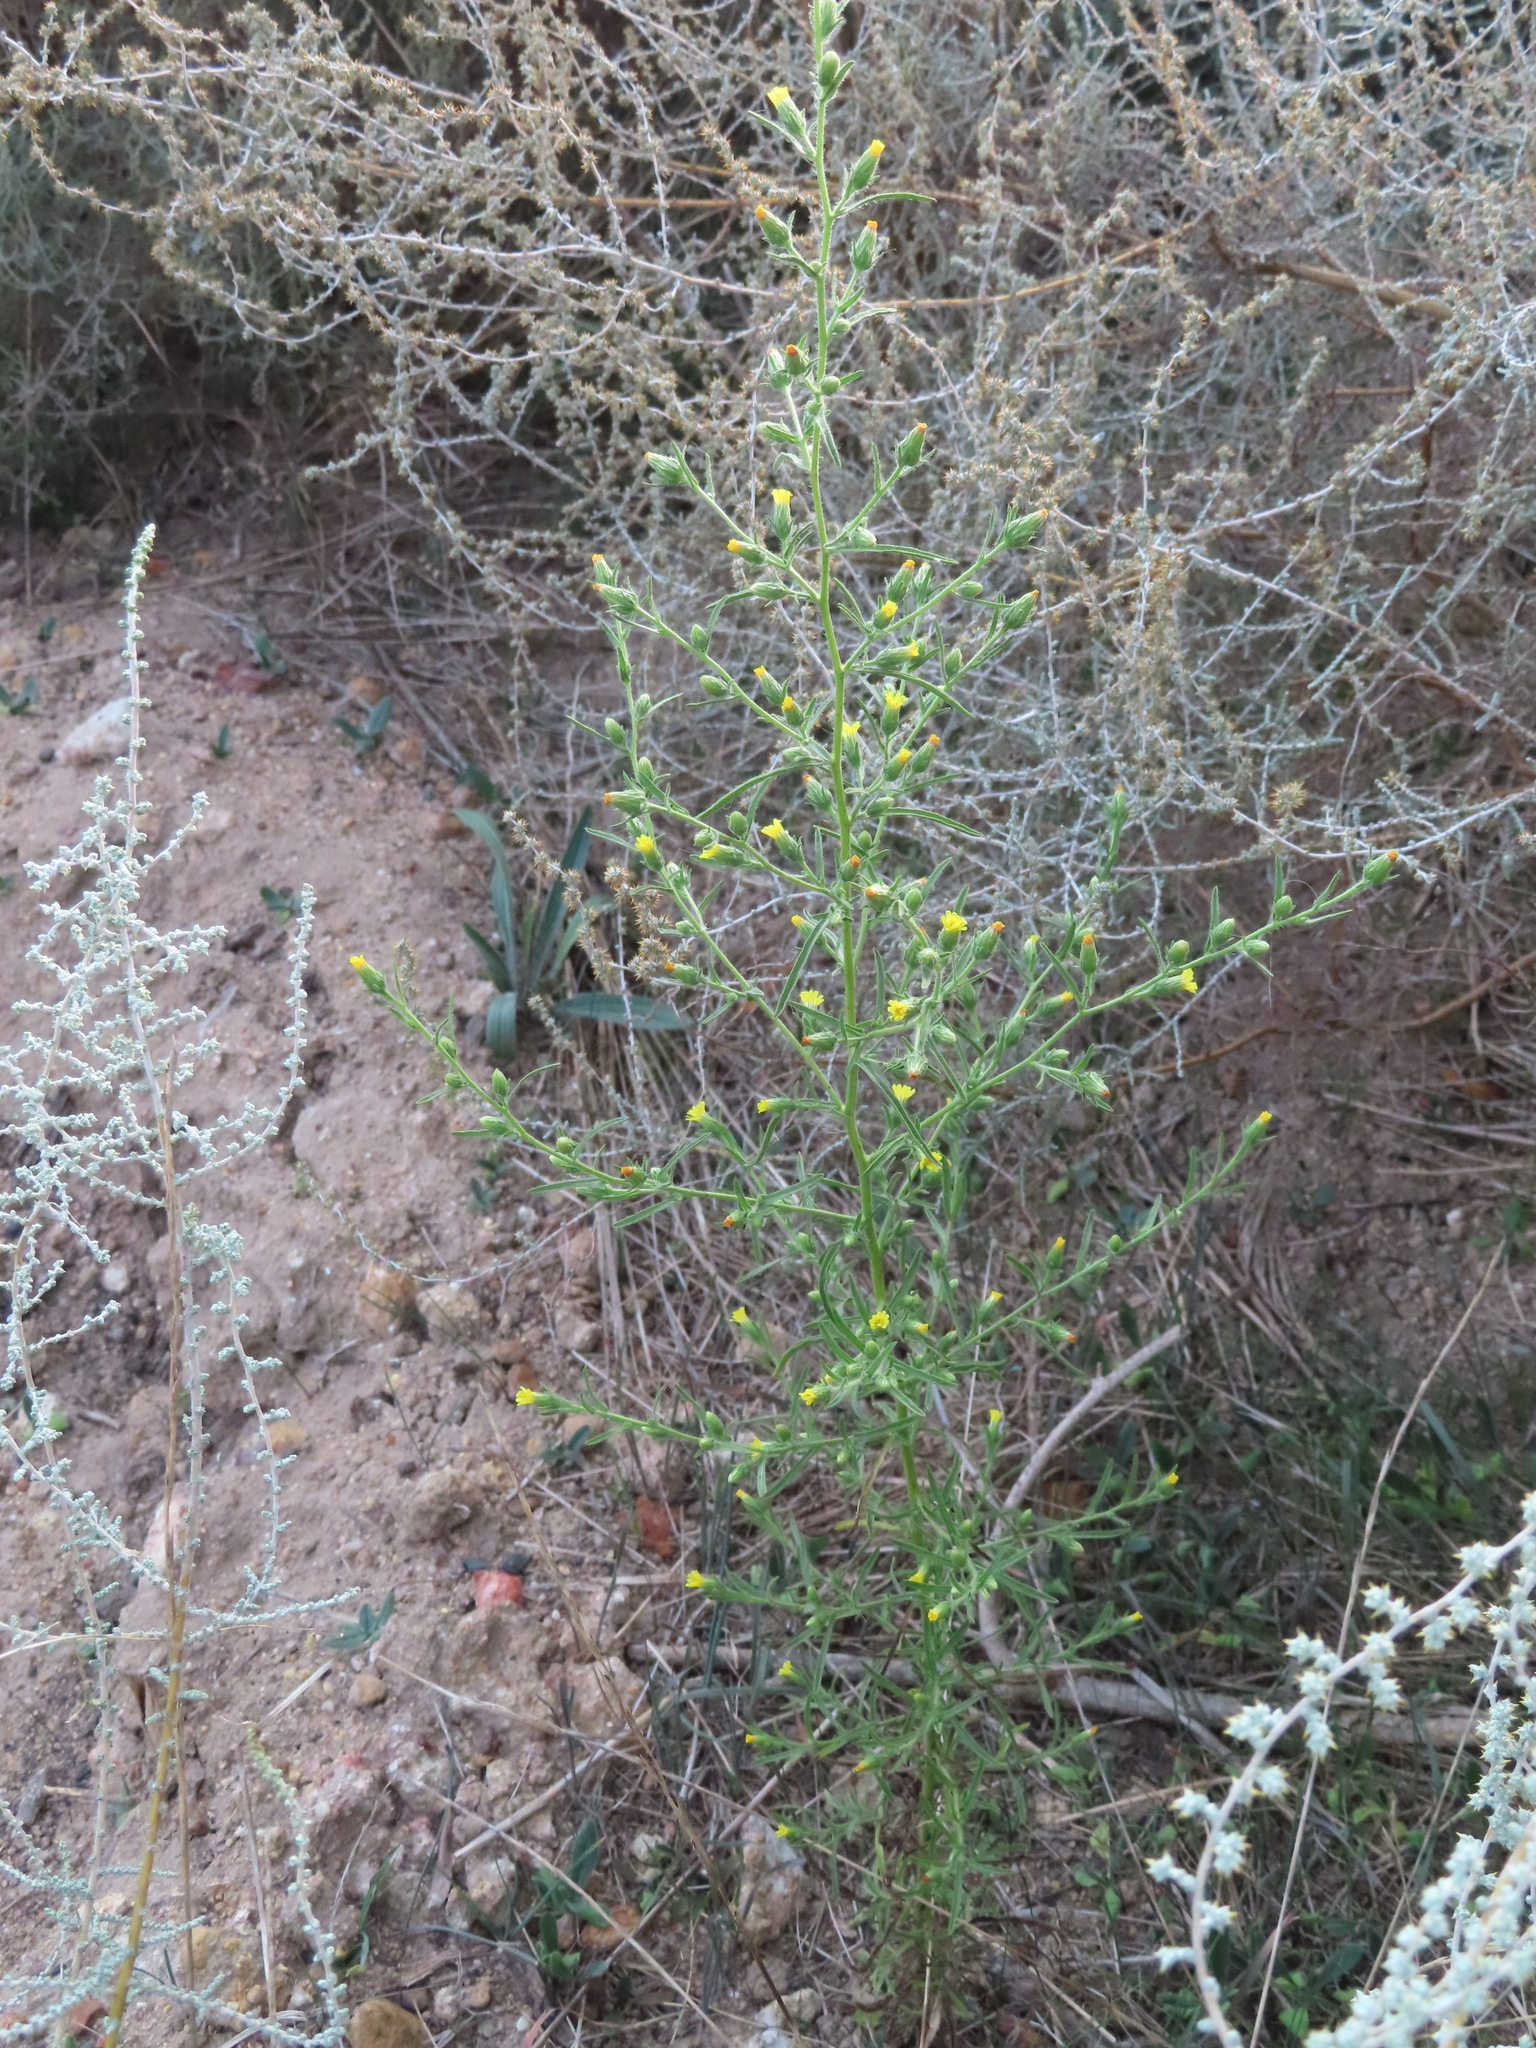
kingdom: Plantae
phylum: Tracheophyta
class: Magnoliopsida
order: Asterales
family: Asteraceae
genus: Dittrichia
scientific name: Dittrichia graveolens
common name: Stinking fleabane
